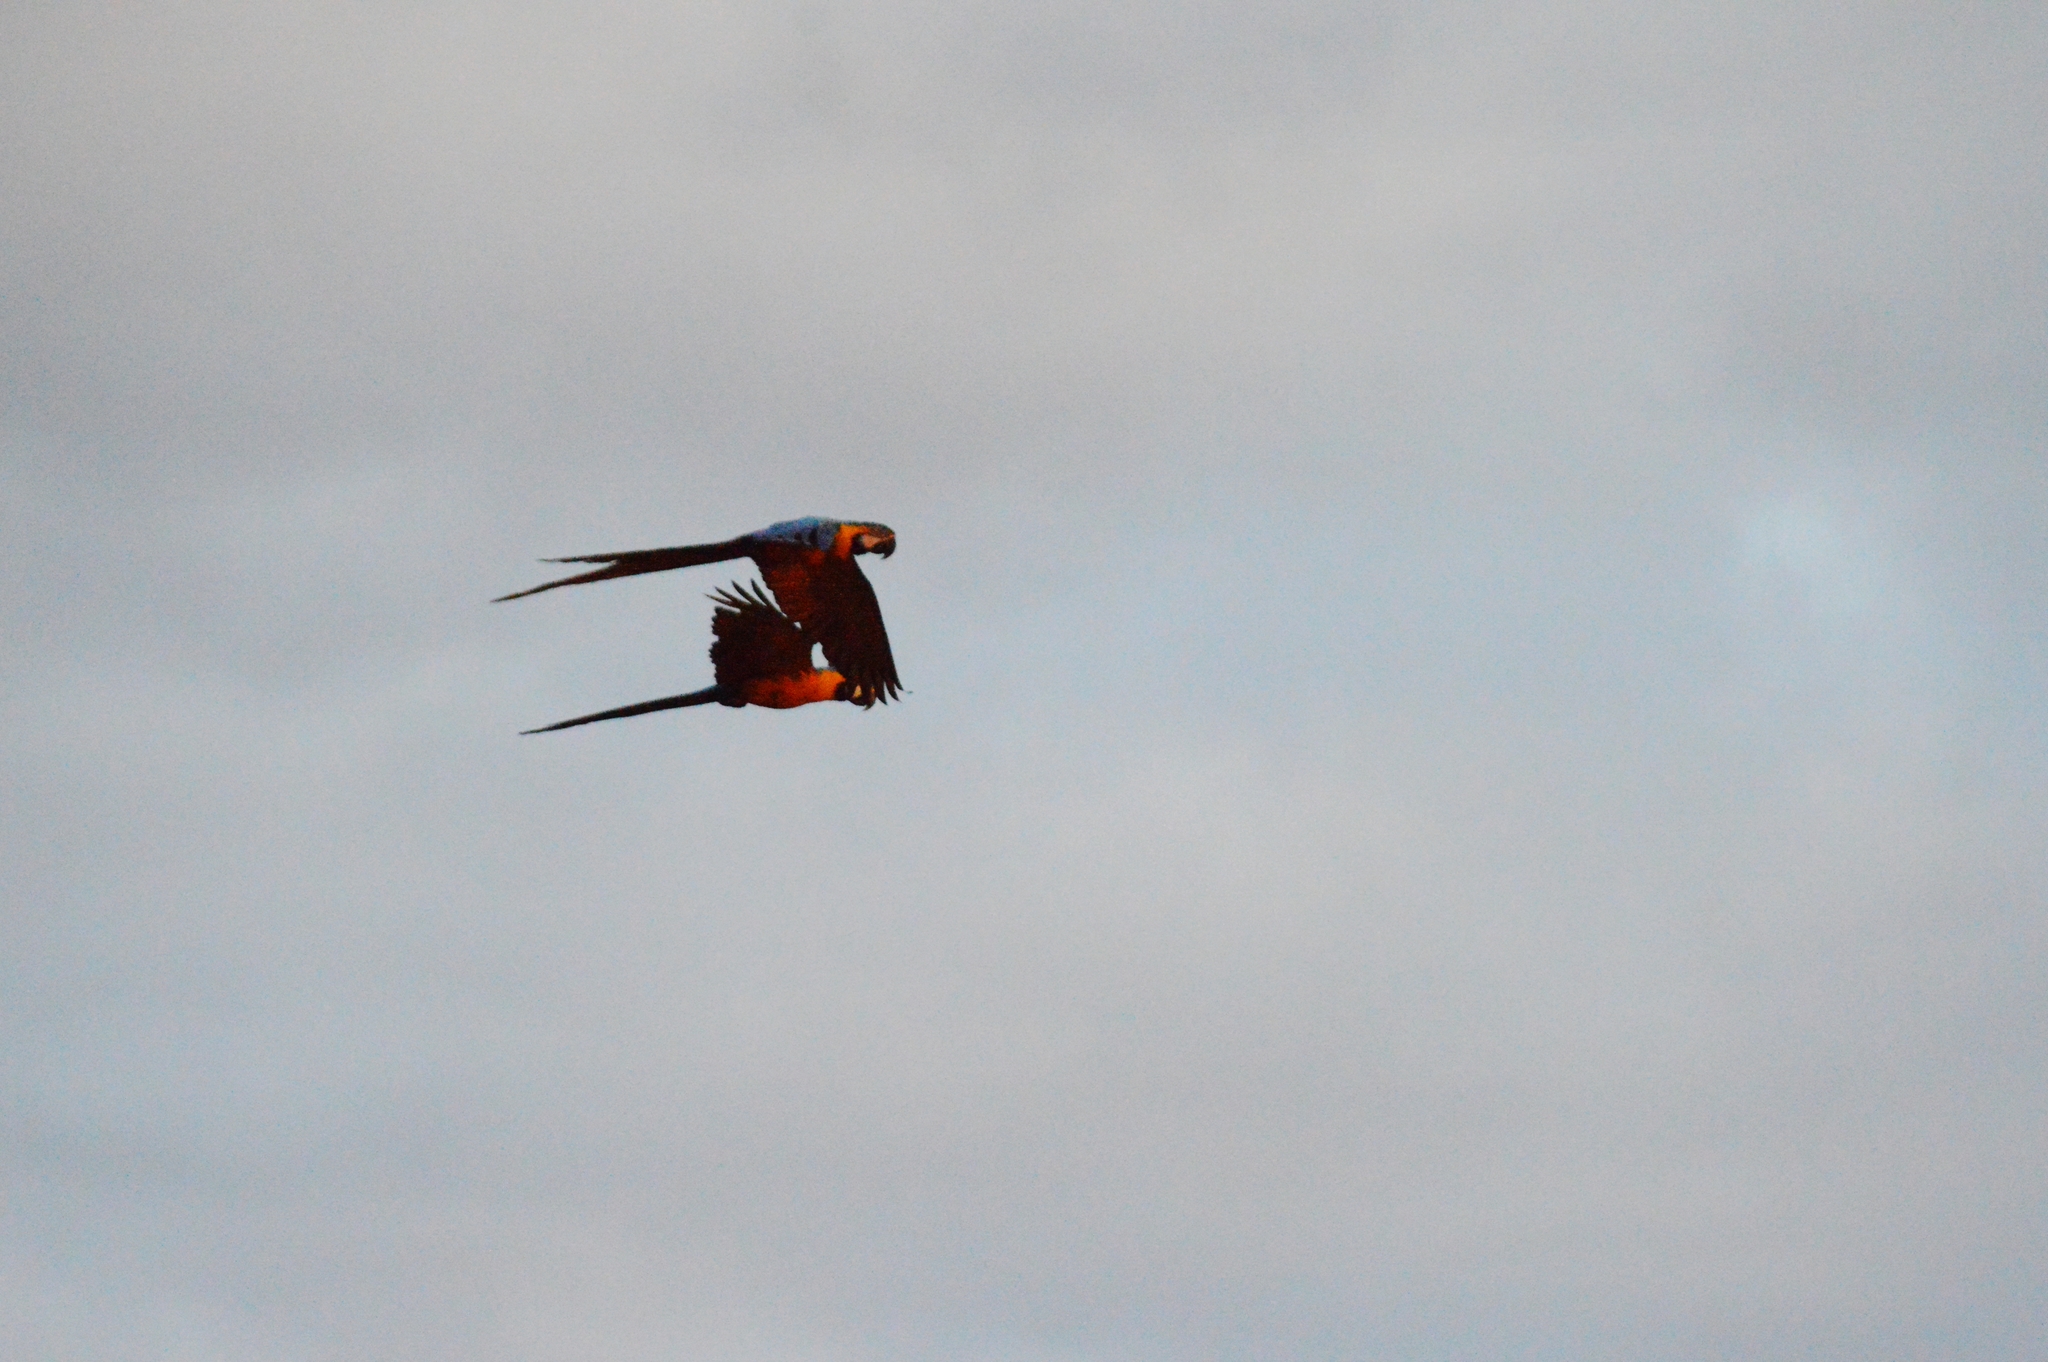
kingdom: Animalia
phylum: Chordata
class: Aves
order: Psittaciformes
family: Psittacidae
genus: Ara
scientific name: Ara ararauna
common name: Blue-and-yellow macaw
